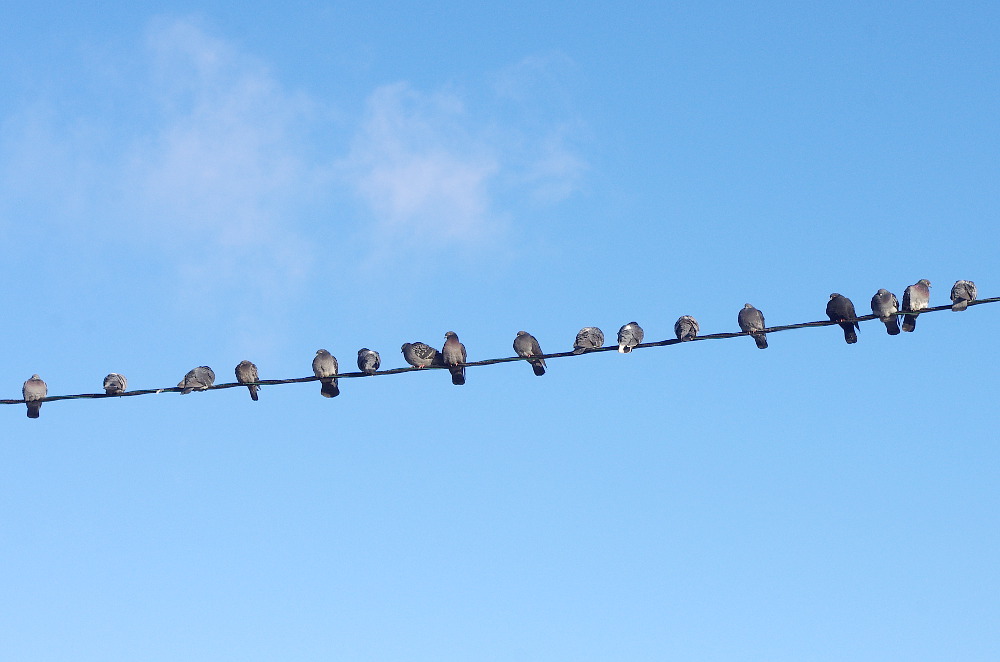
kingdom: Animalia
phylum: Chordata
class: Aves
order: Columbiformes
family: Columbidae
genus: Columba
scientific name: Columba livia
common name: Rock pigeon
